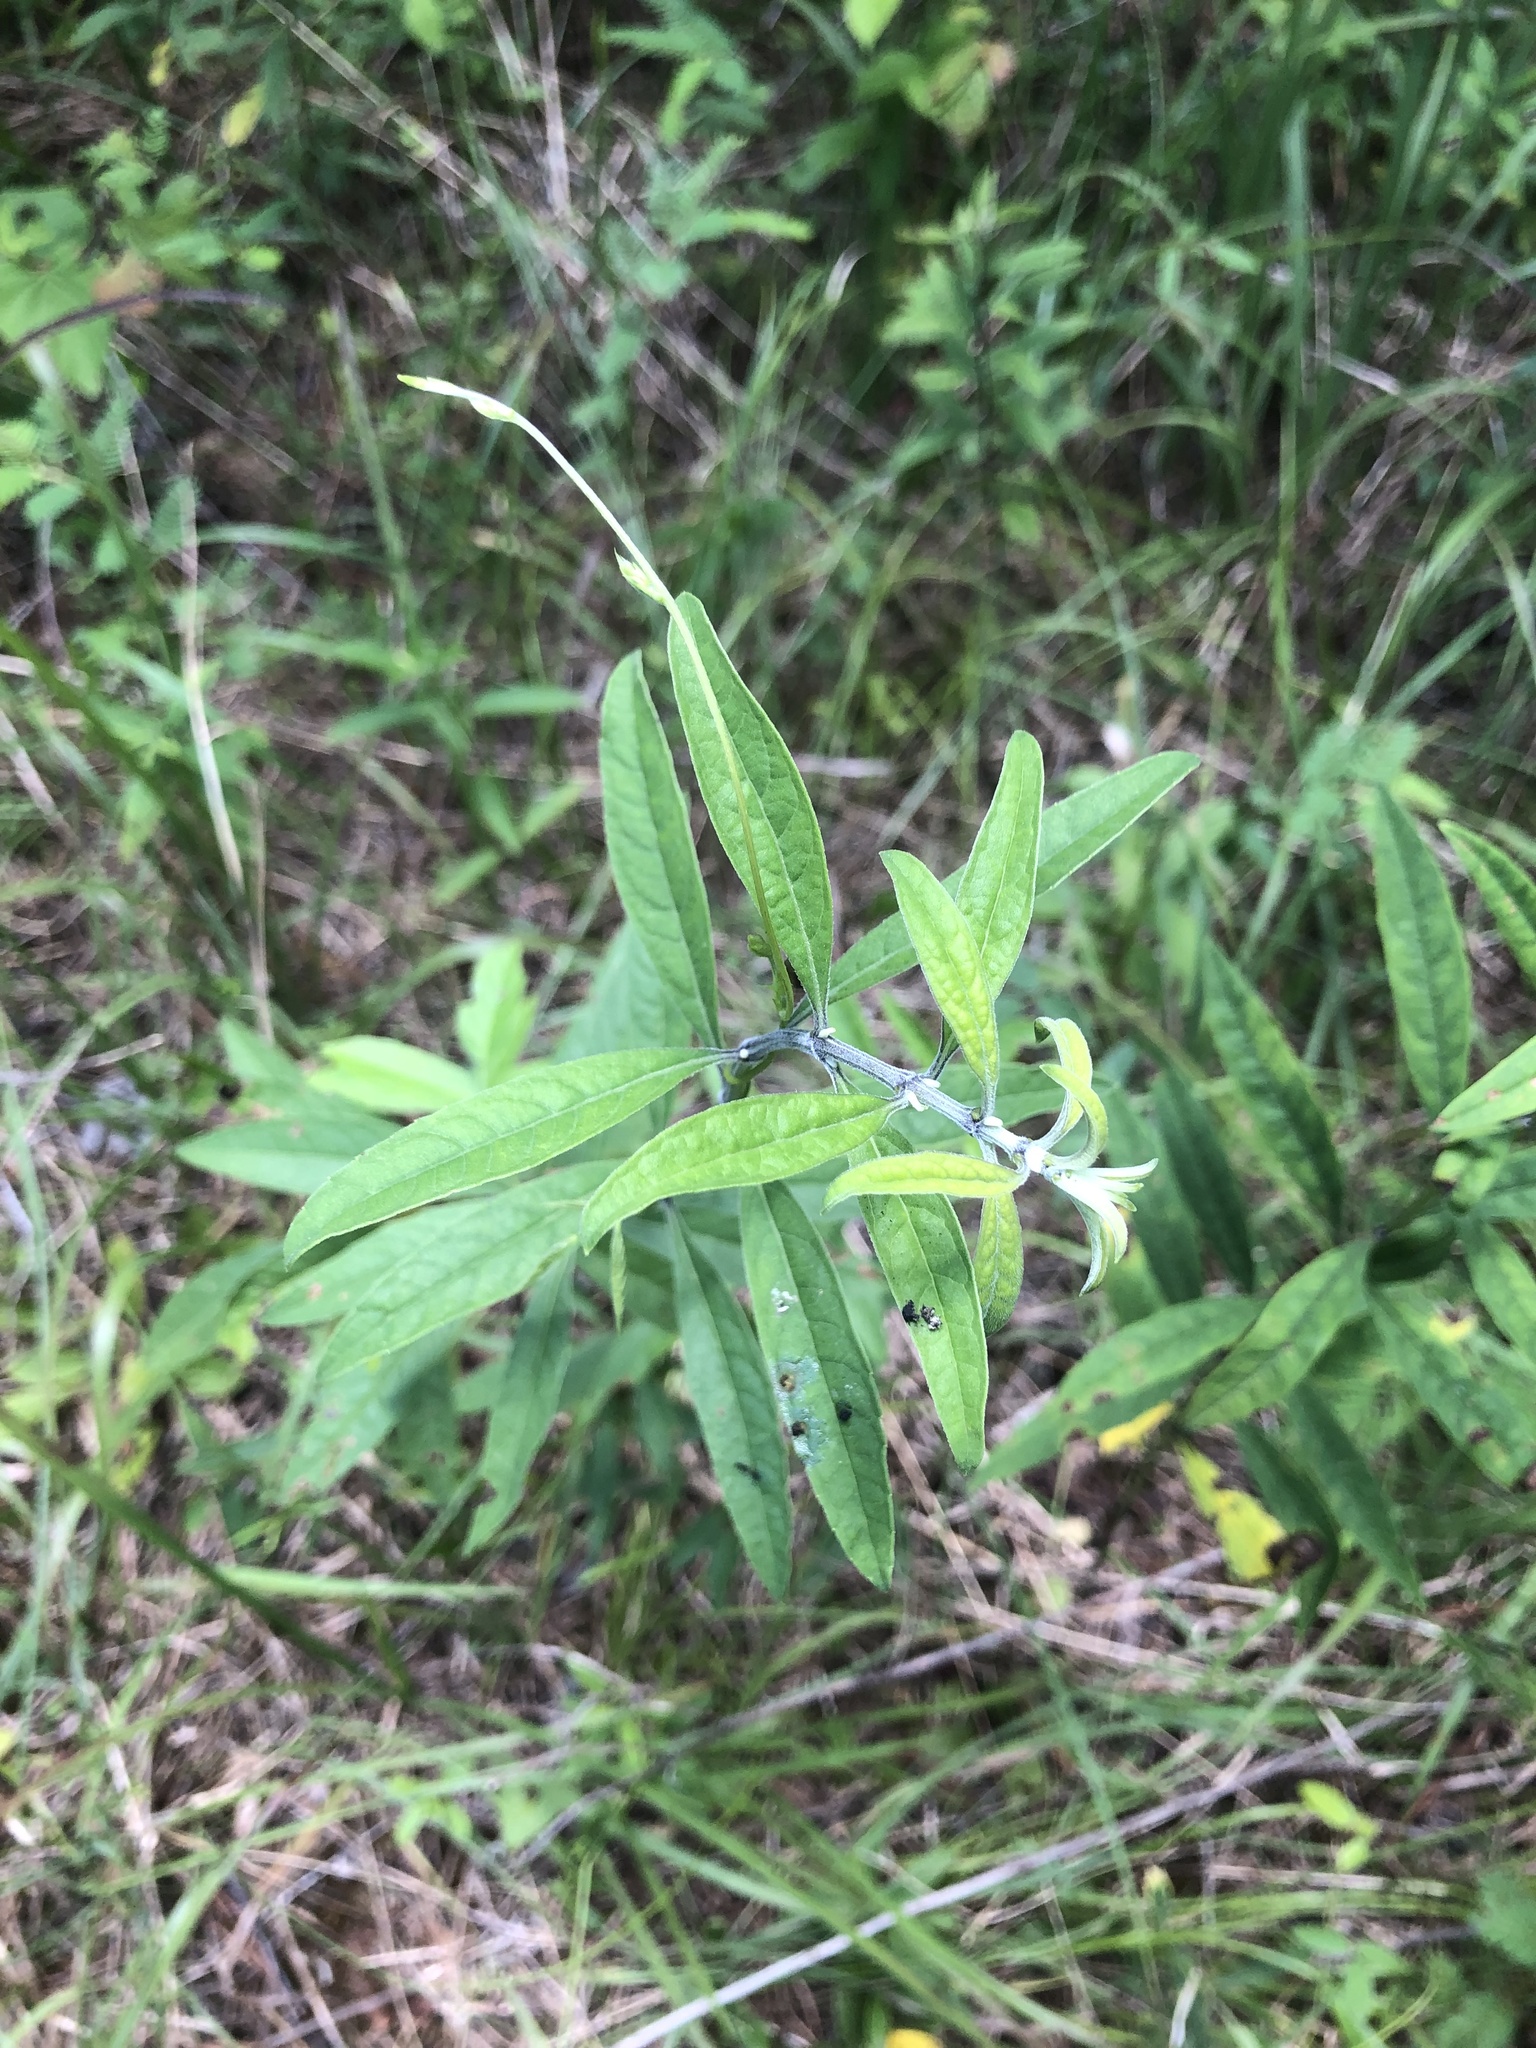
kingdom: Plantae
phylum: Tracheophyta
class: Magnoliopsida
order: Lamiales
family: Lamiaceae
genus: Salvia
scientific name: Salvia azurea
